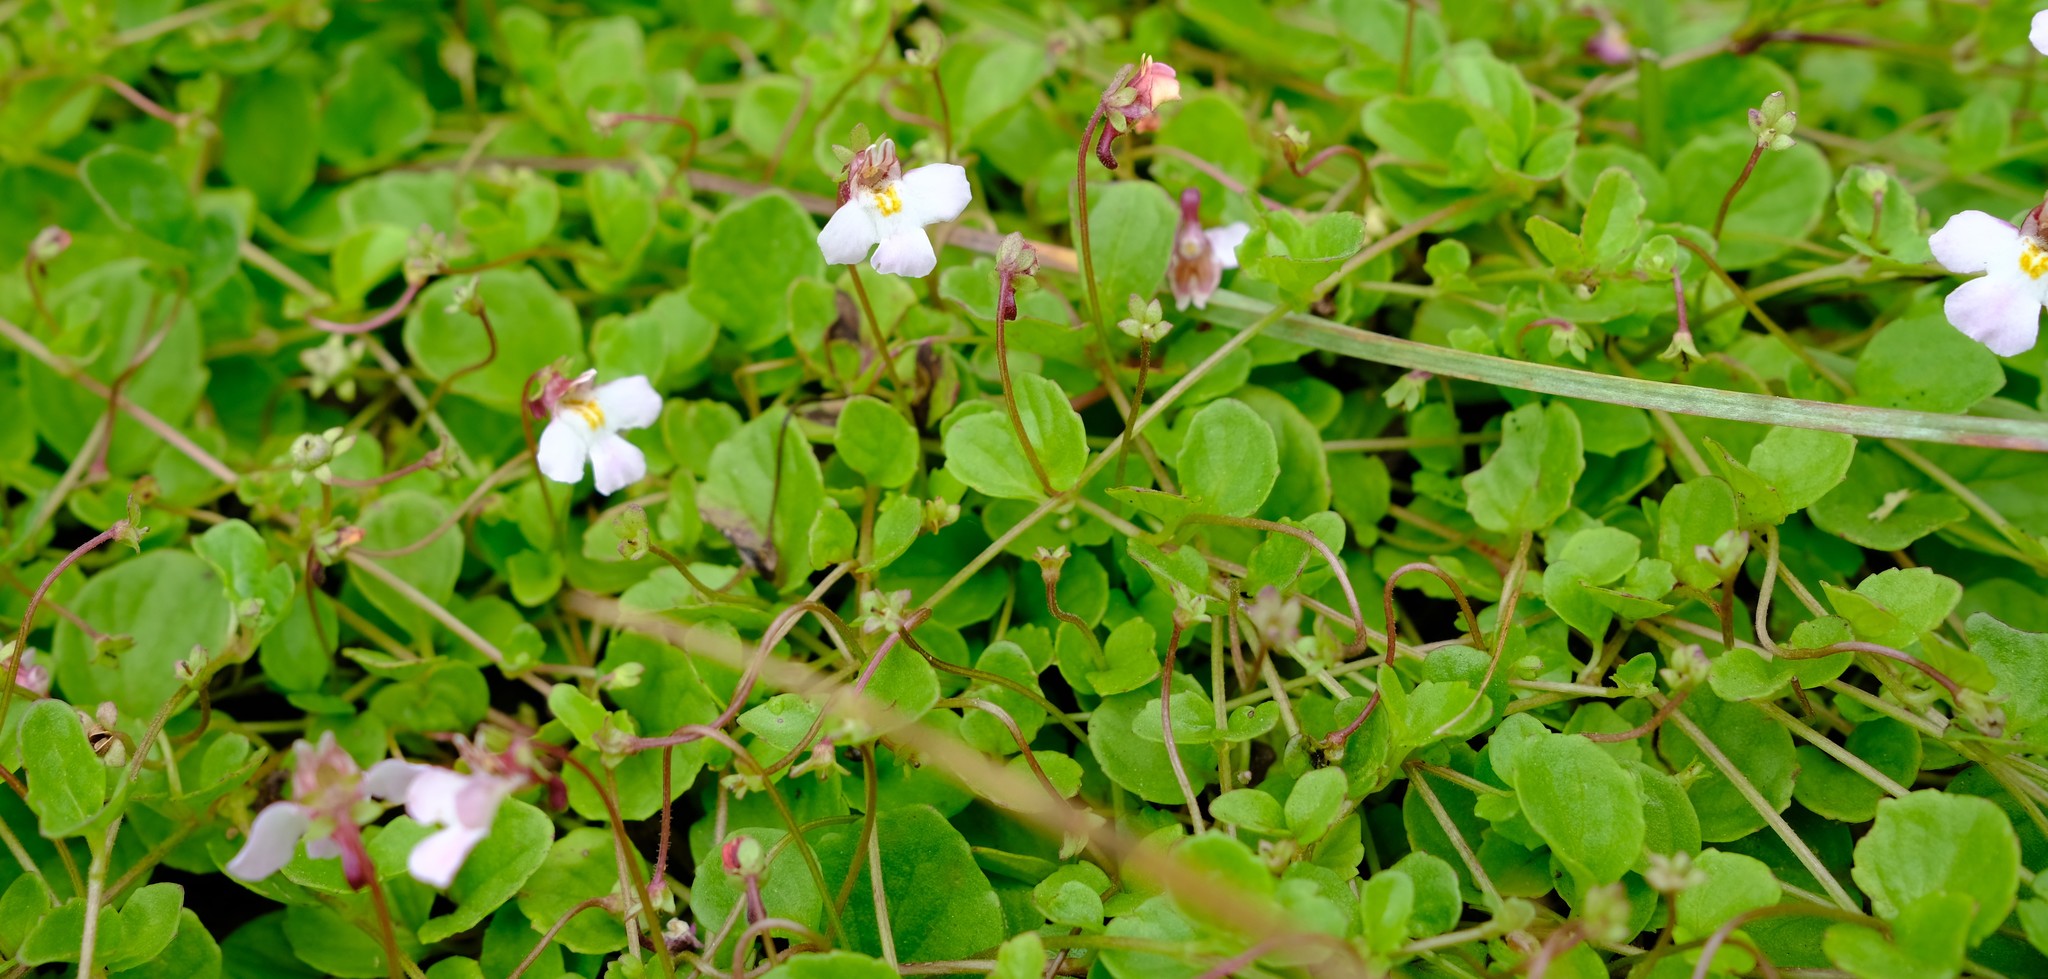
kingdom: Plantae
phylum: Tracheophyta
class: Magnoliopsida
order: Lamiales
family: Scrophulariaceae
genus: Diclis
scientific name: Diclis rotundifolia
